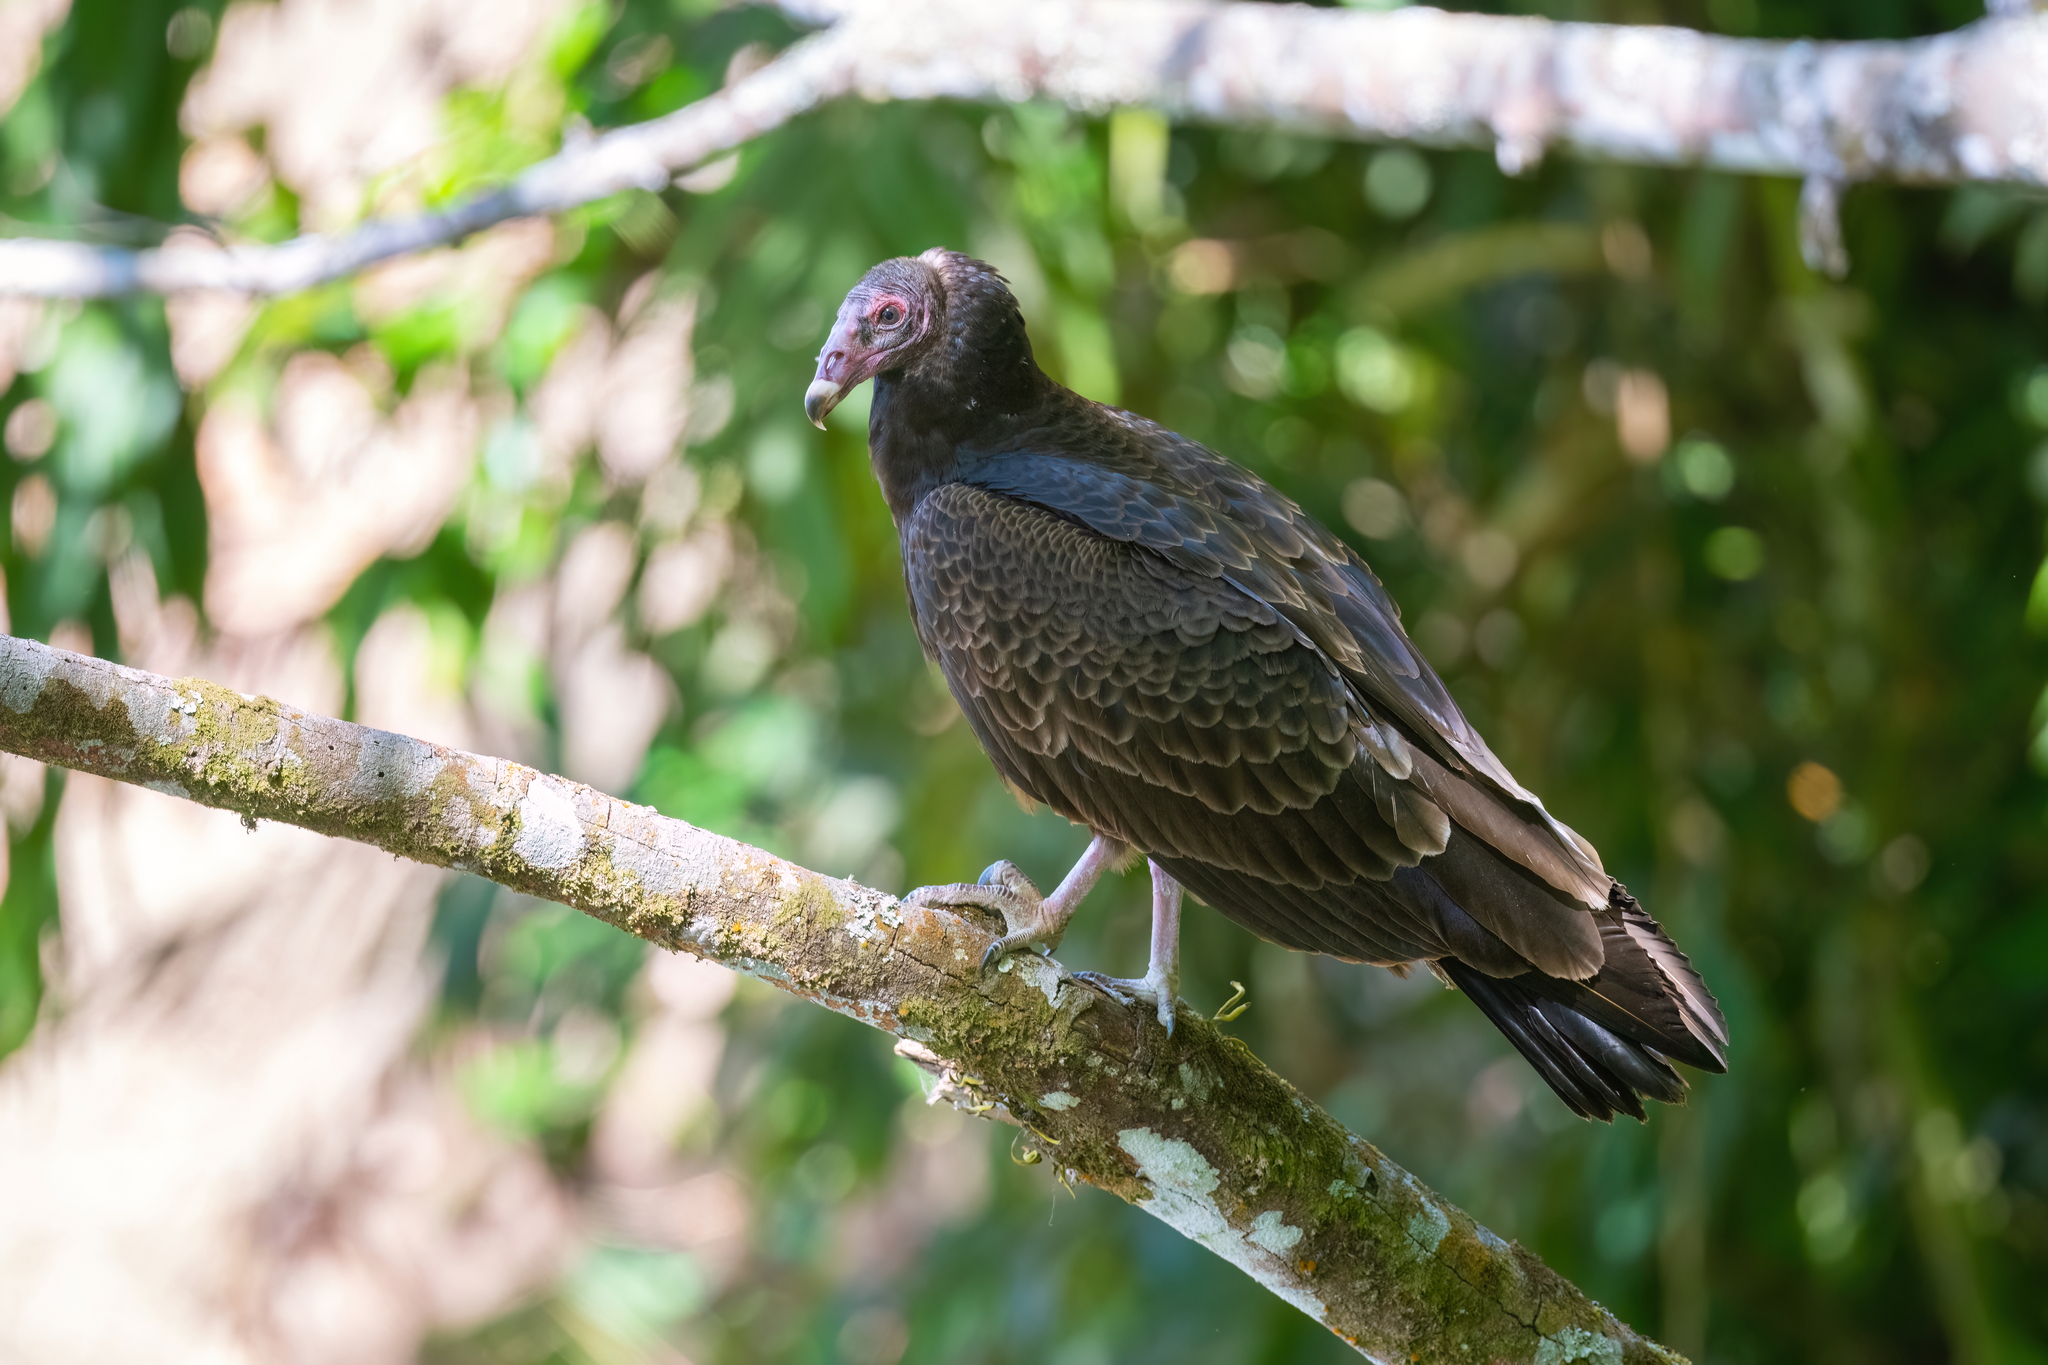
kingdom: Animalia
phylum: Chordata
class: Aves
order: Accipitriformes
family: Cathartidae
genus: Cathartes
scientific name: Cathartes aura
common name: Turkey vulture
